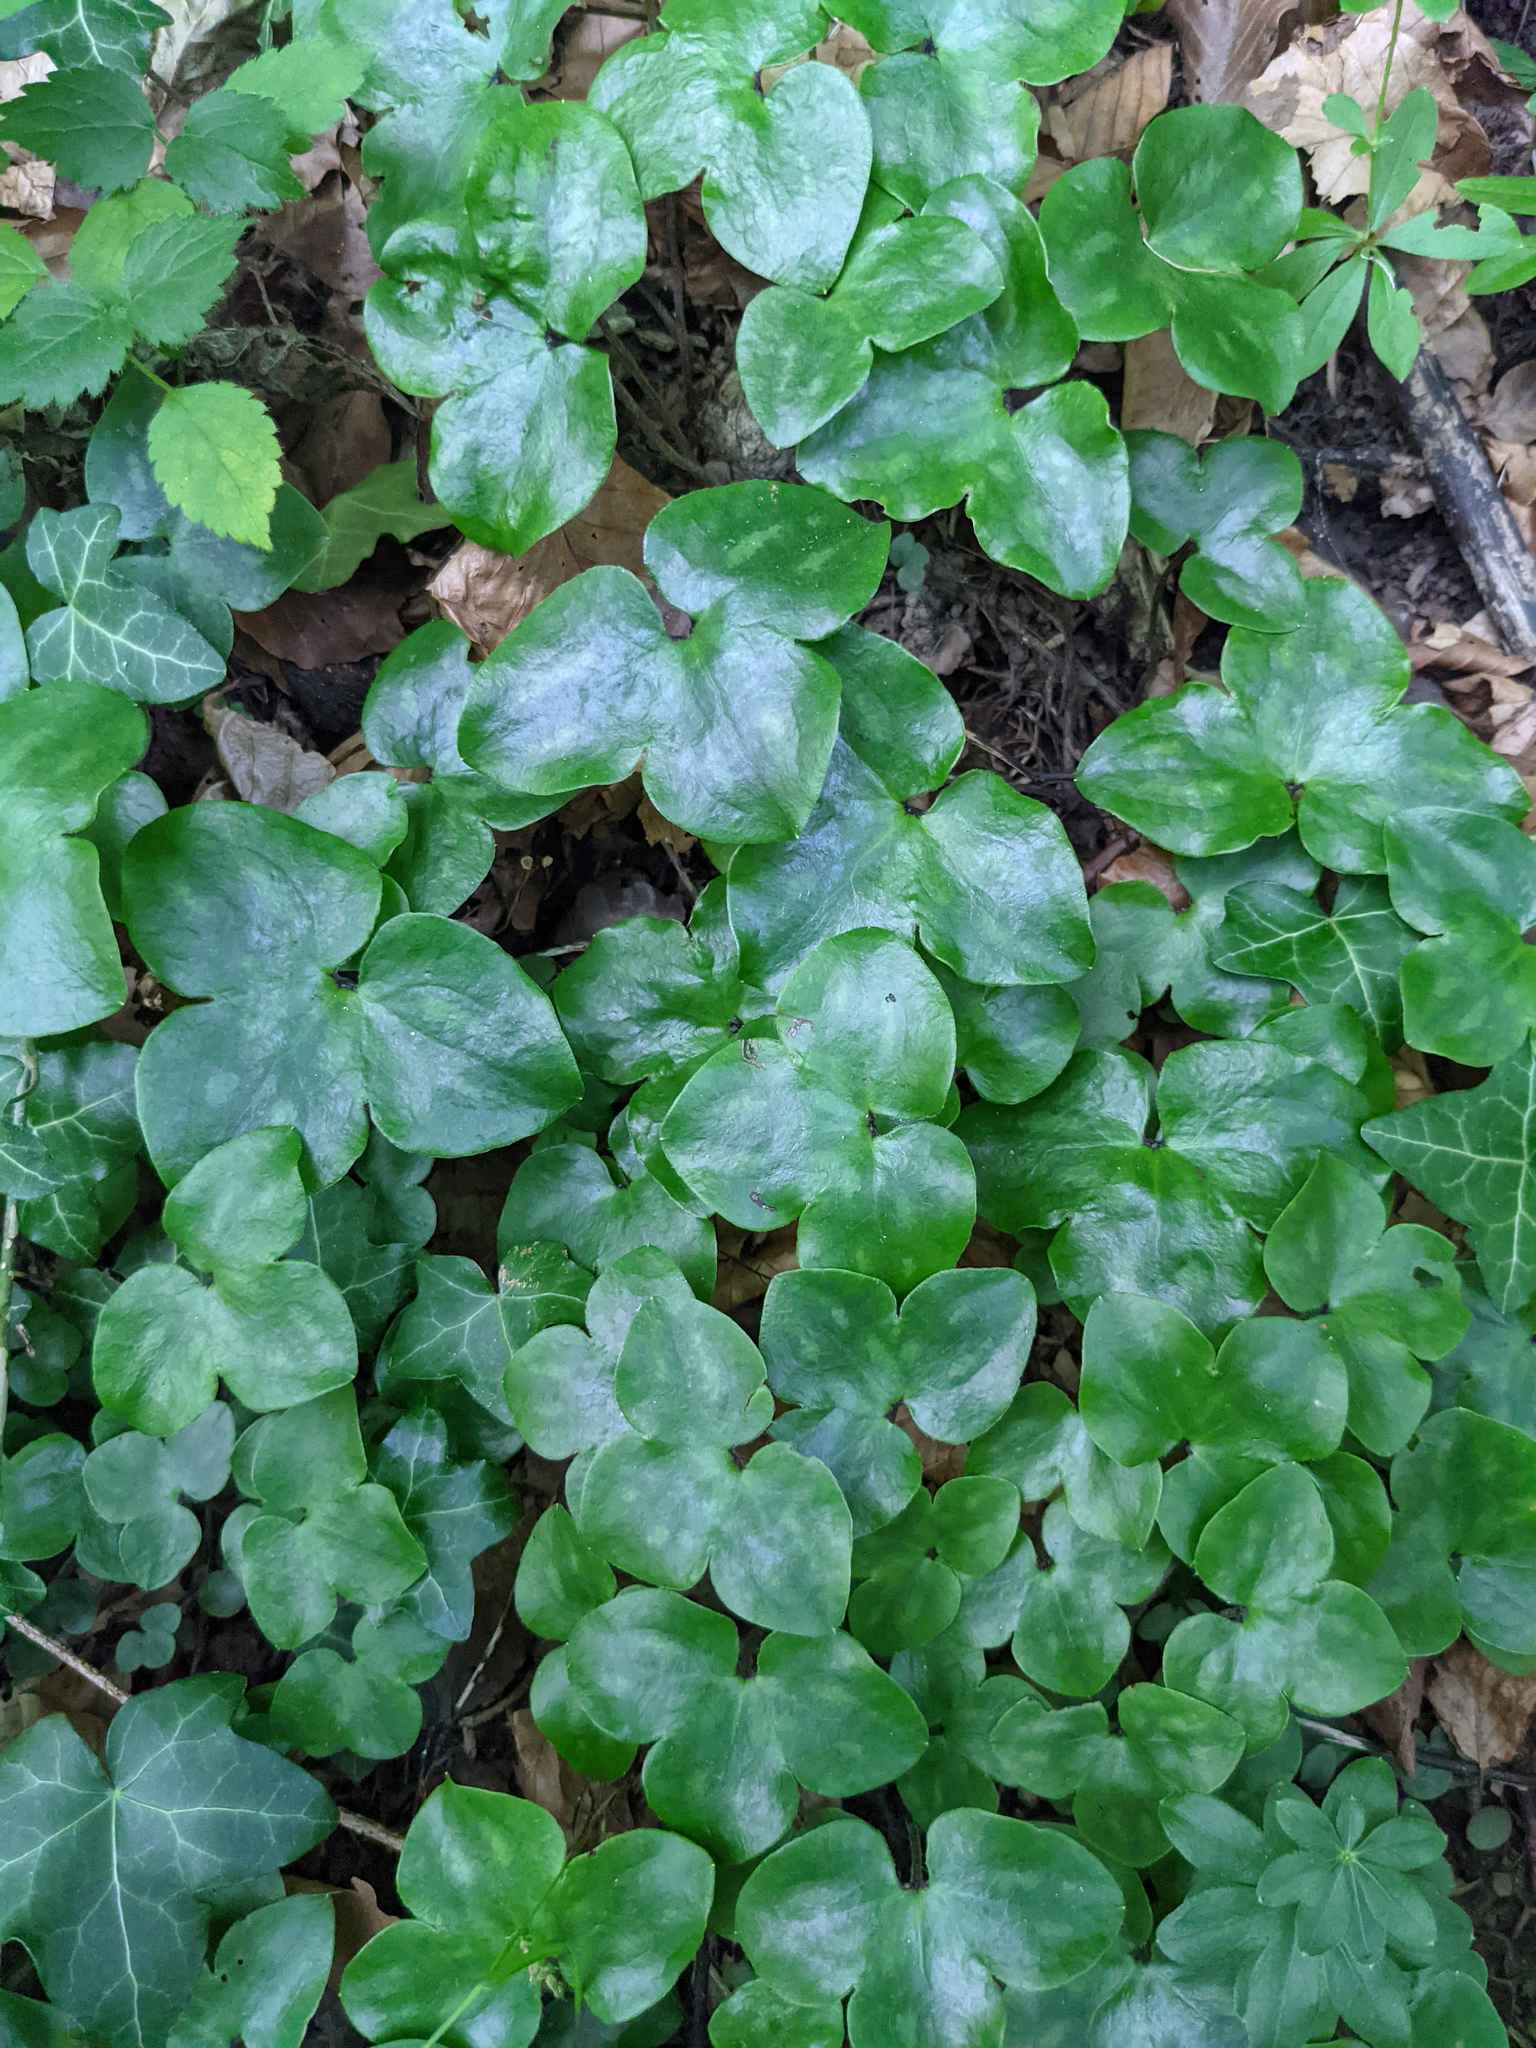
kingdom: Plantae
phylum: Tracheophyta
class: Magnoliopsida
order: Ranunculales
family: Ranunculaceae
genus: Hepatica
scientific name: Hepatica nobilis
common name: Liverleaf
